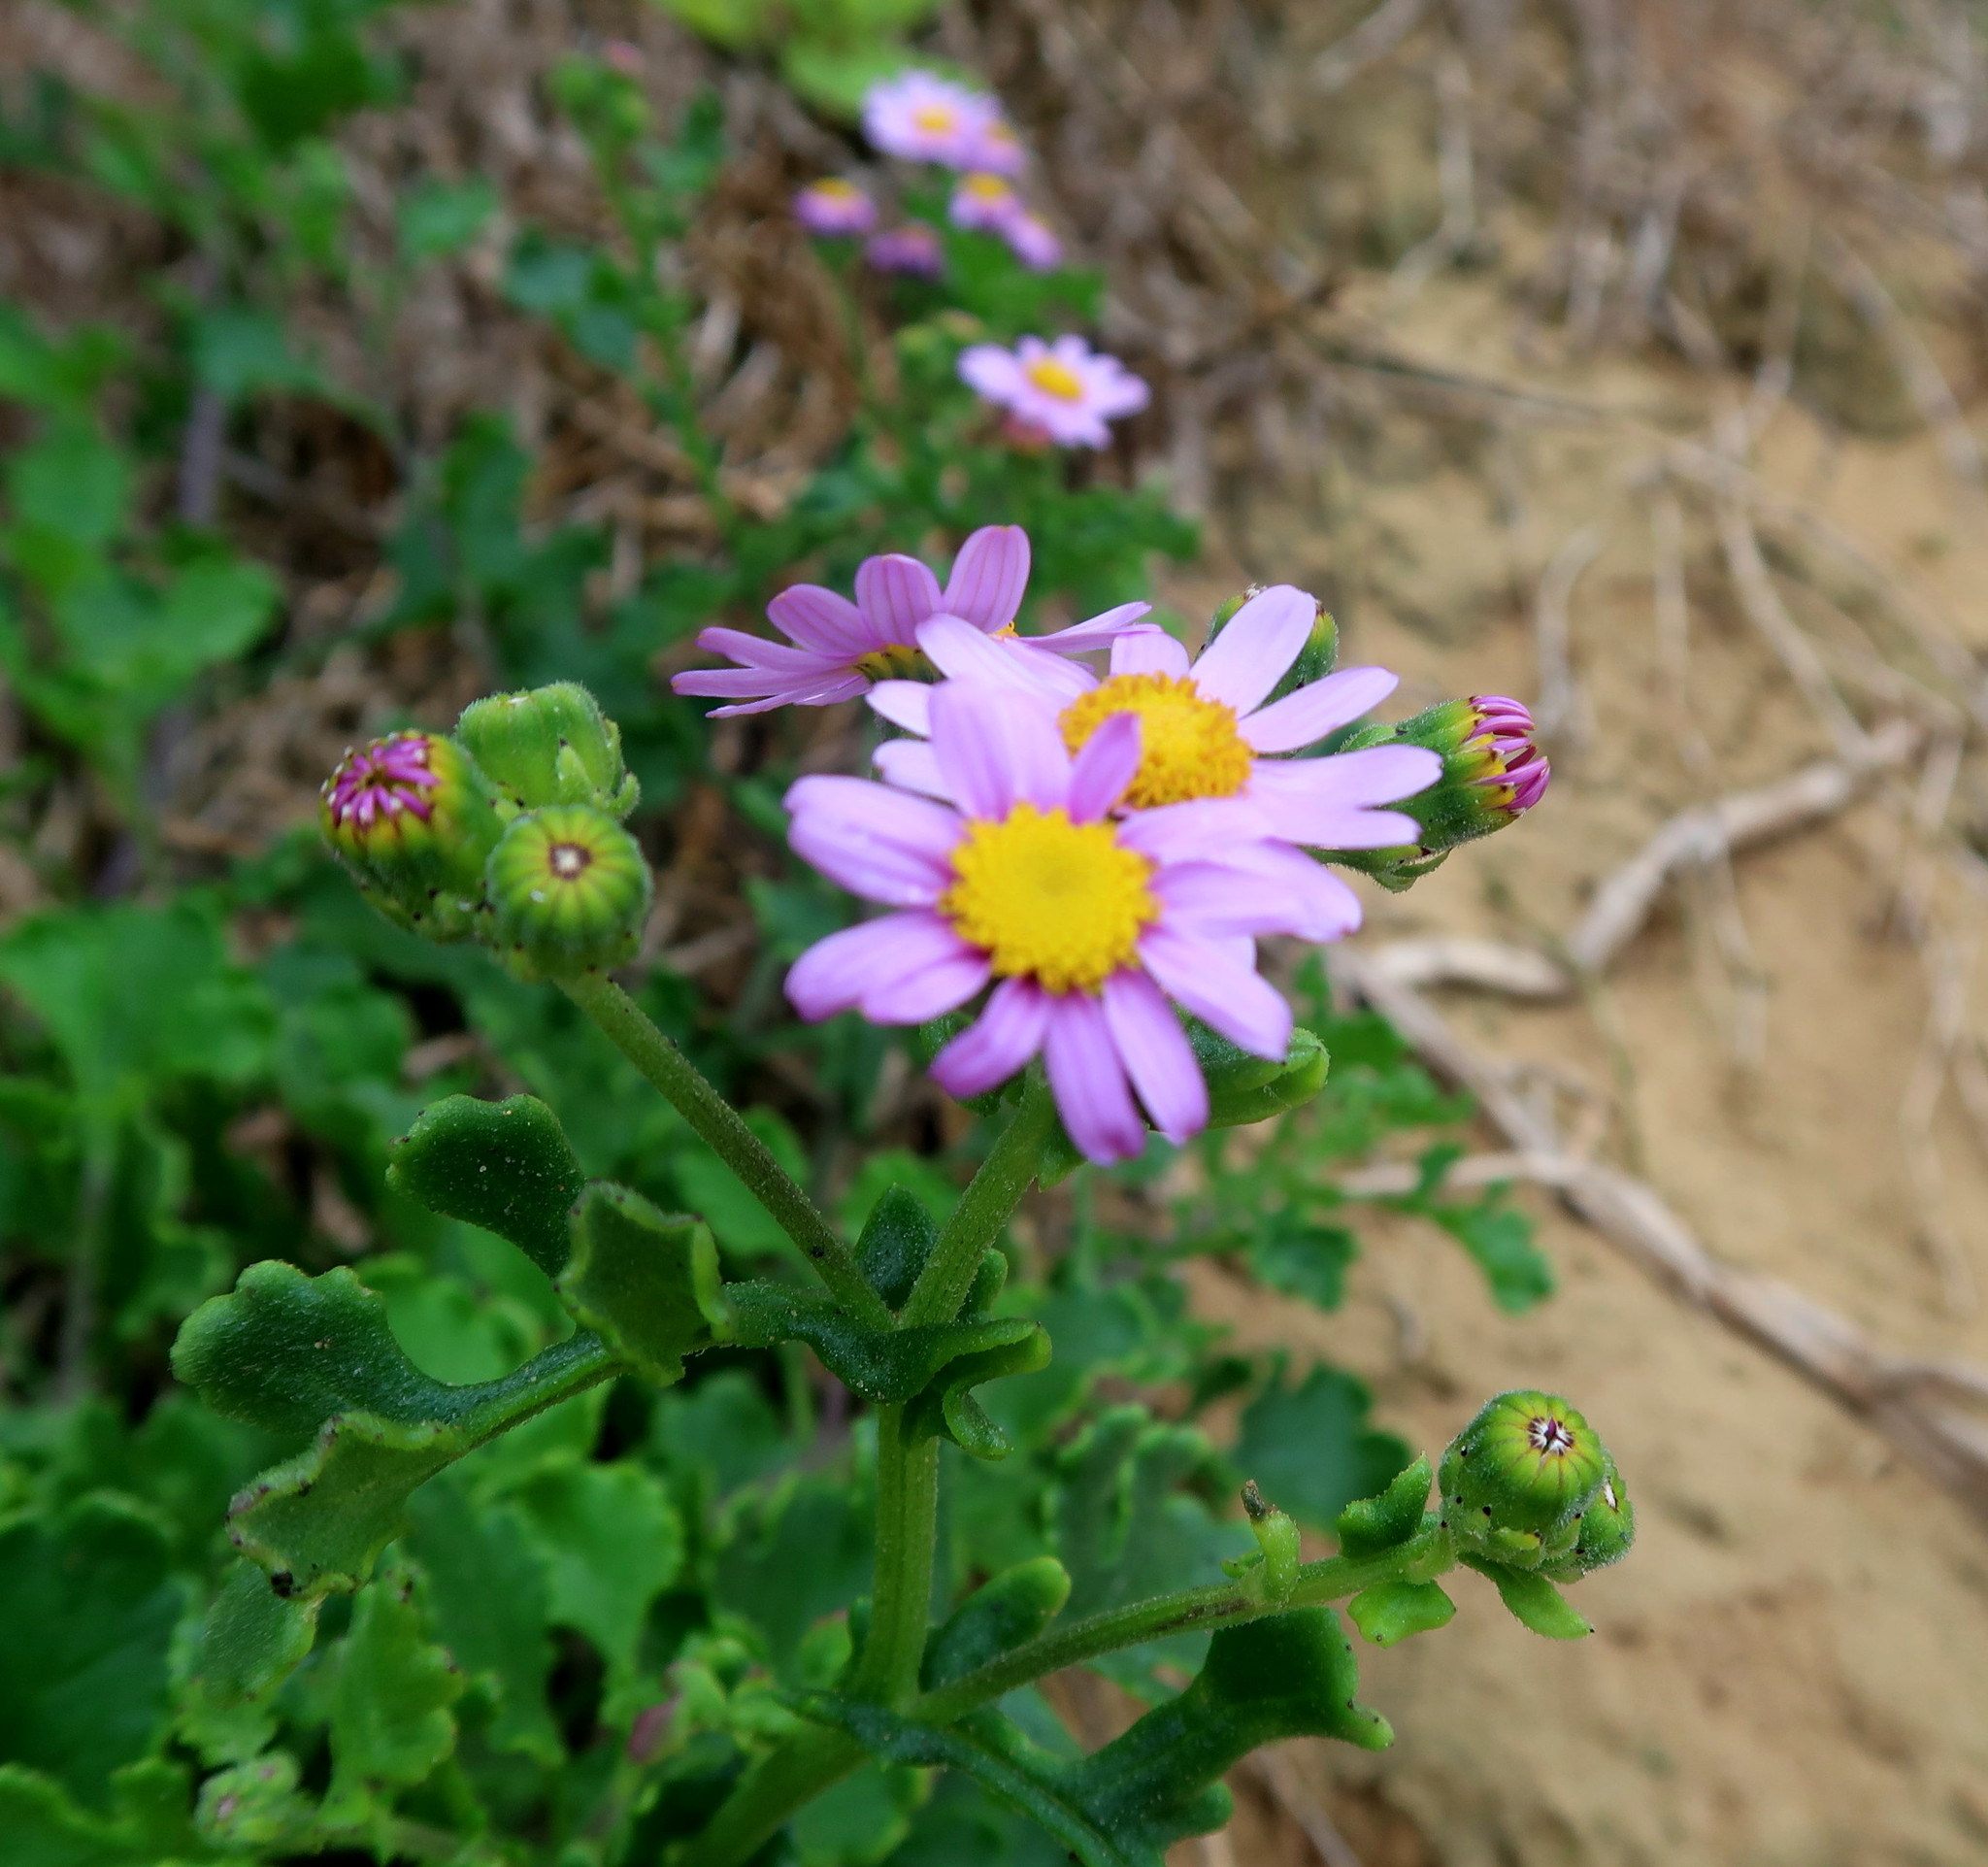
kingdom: Plantae
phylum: Tracheophyta
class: Magnoliopsida
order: Asterales
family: Asteraceae
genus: Senecio
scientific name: Senecio elegans
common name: Purple groundsel
